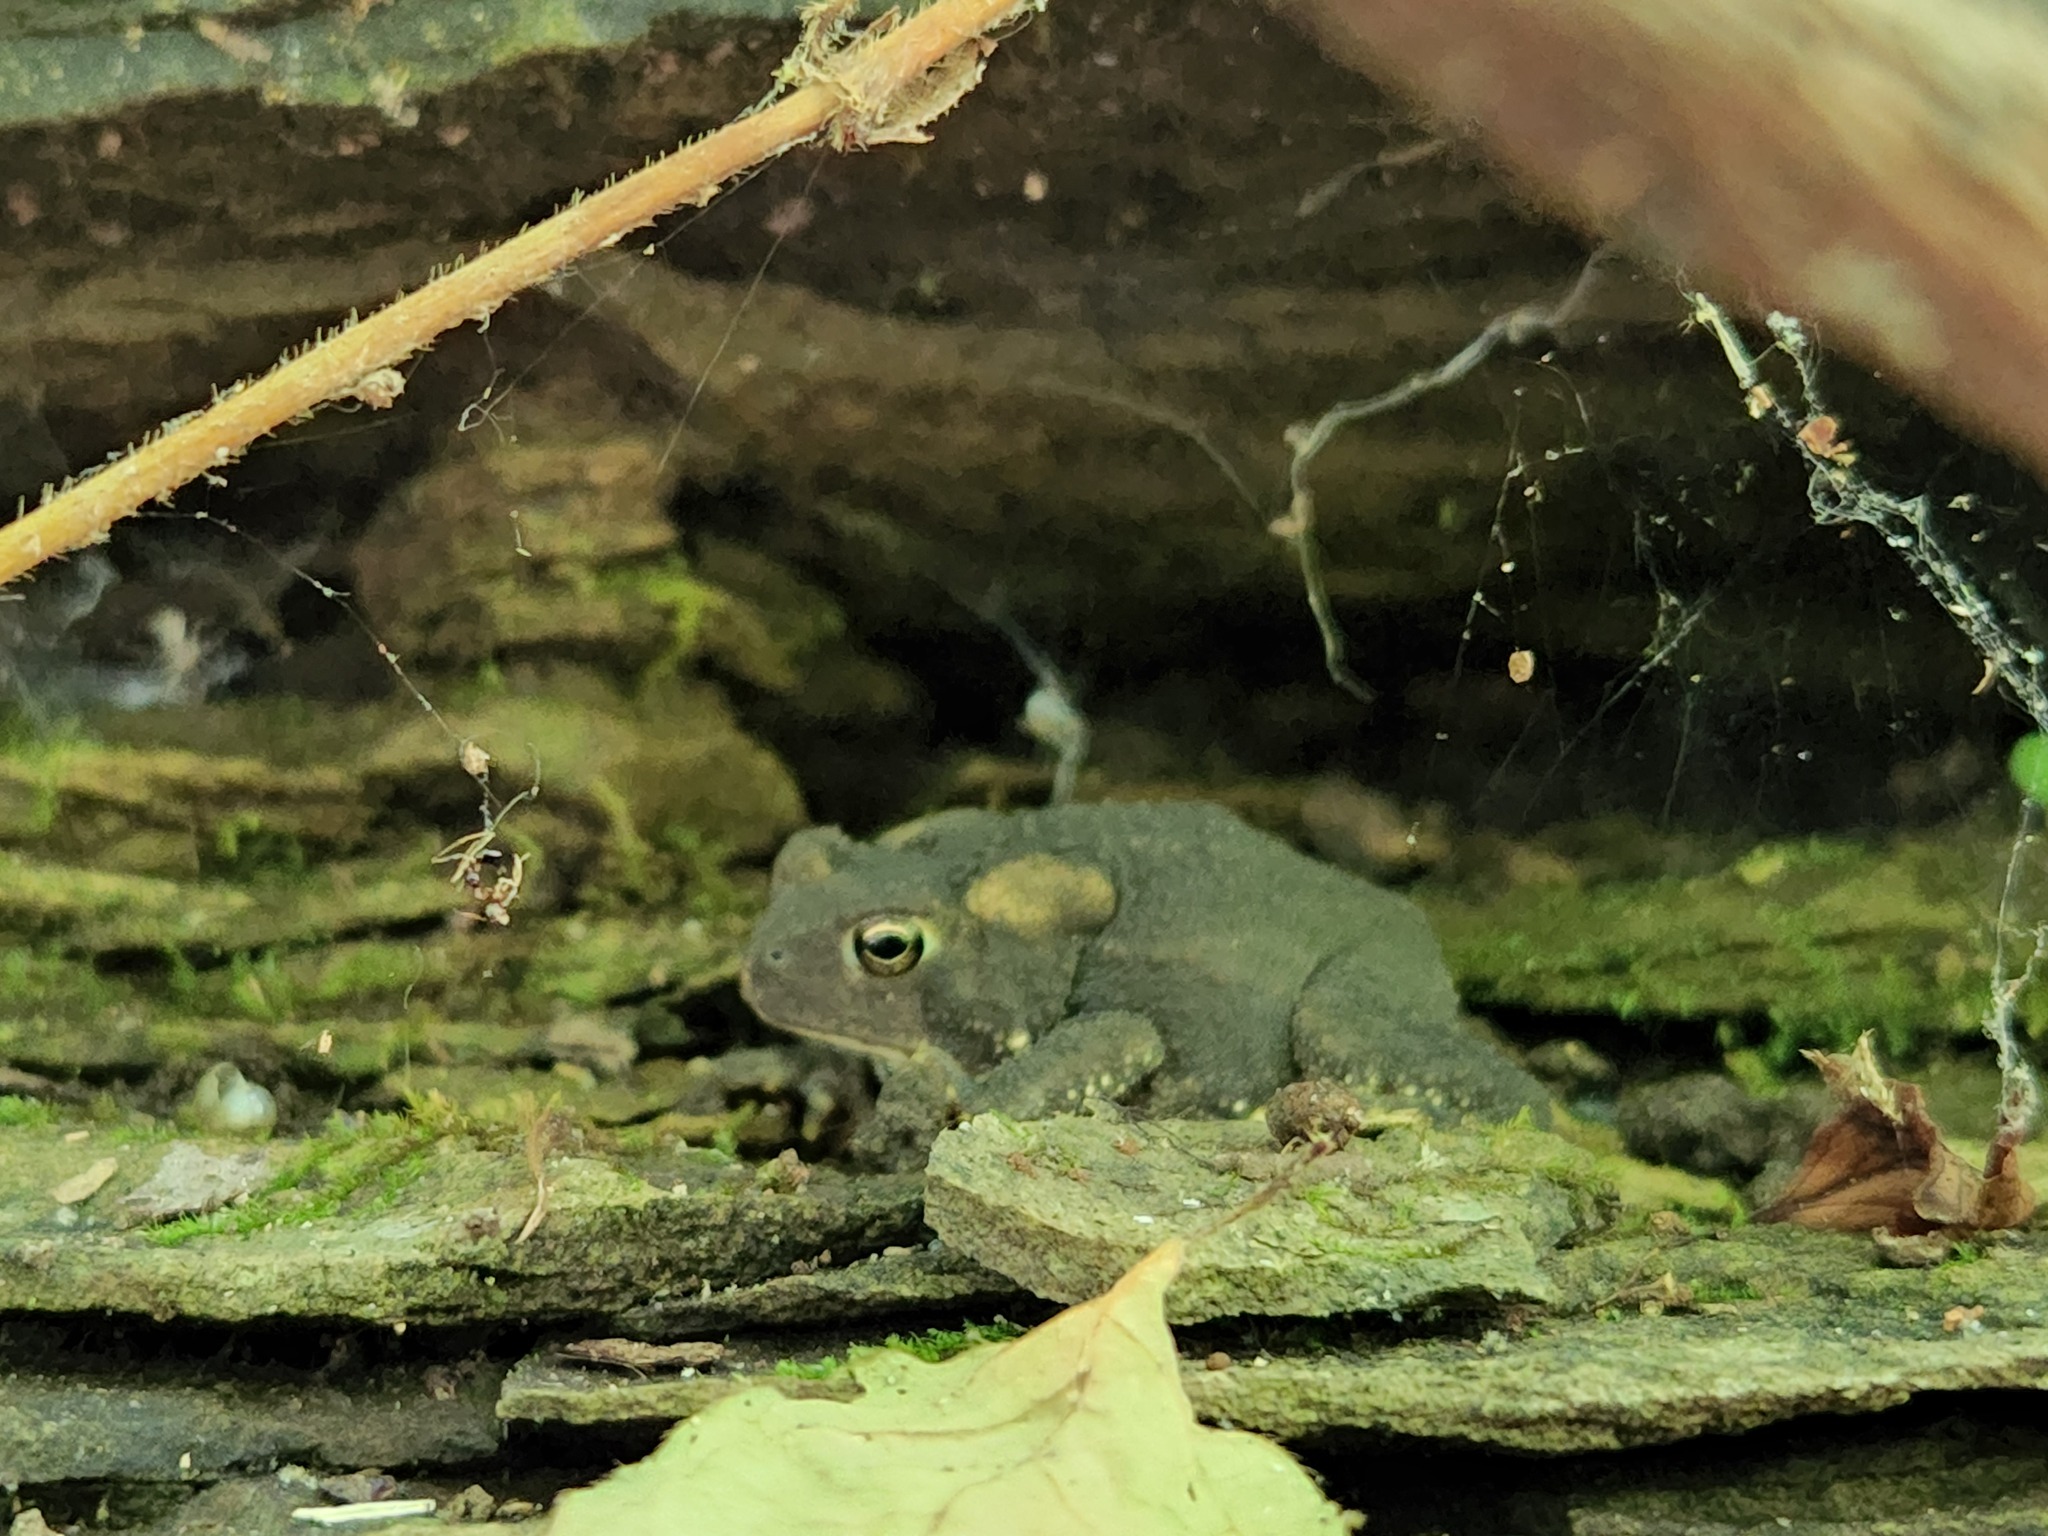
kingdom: Animalia
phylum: Chordata
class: Amphibia
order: Anura
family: Bufonidae
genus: Anaxyrus
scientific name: Anaxyrus americanus
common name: American toad
